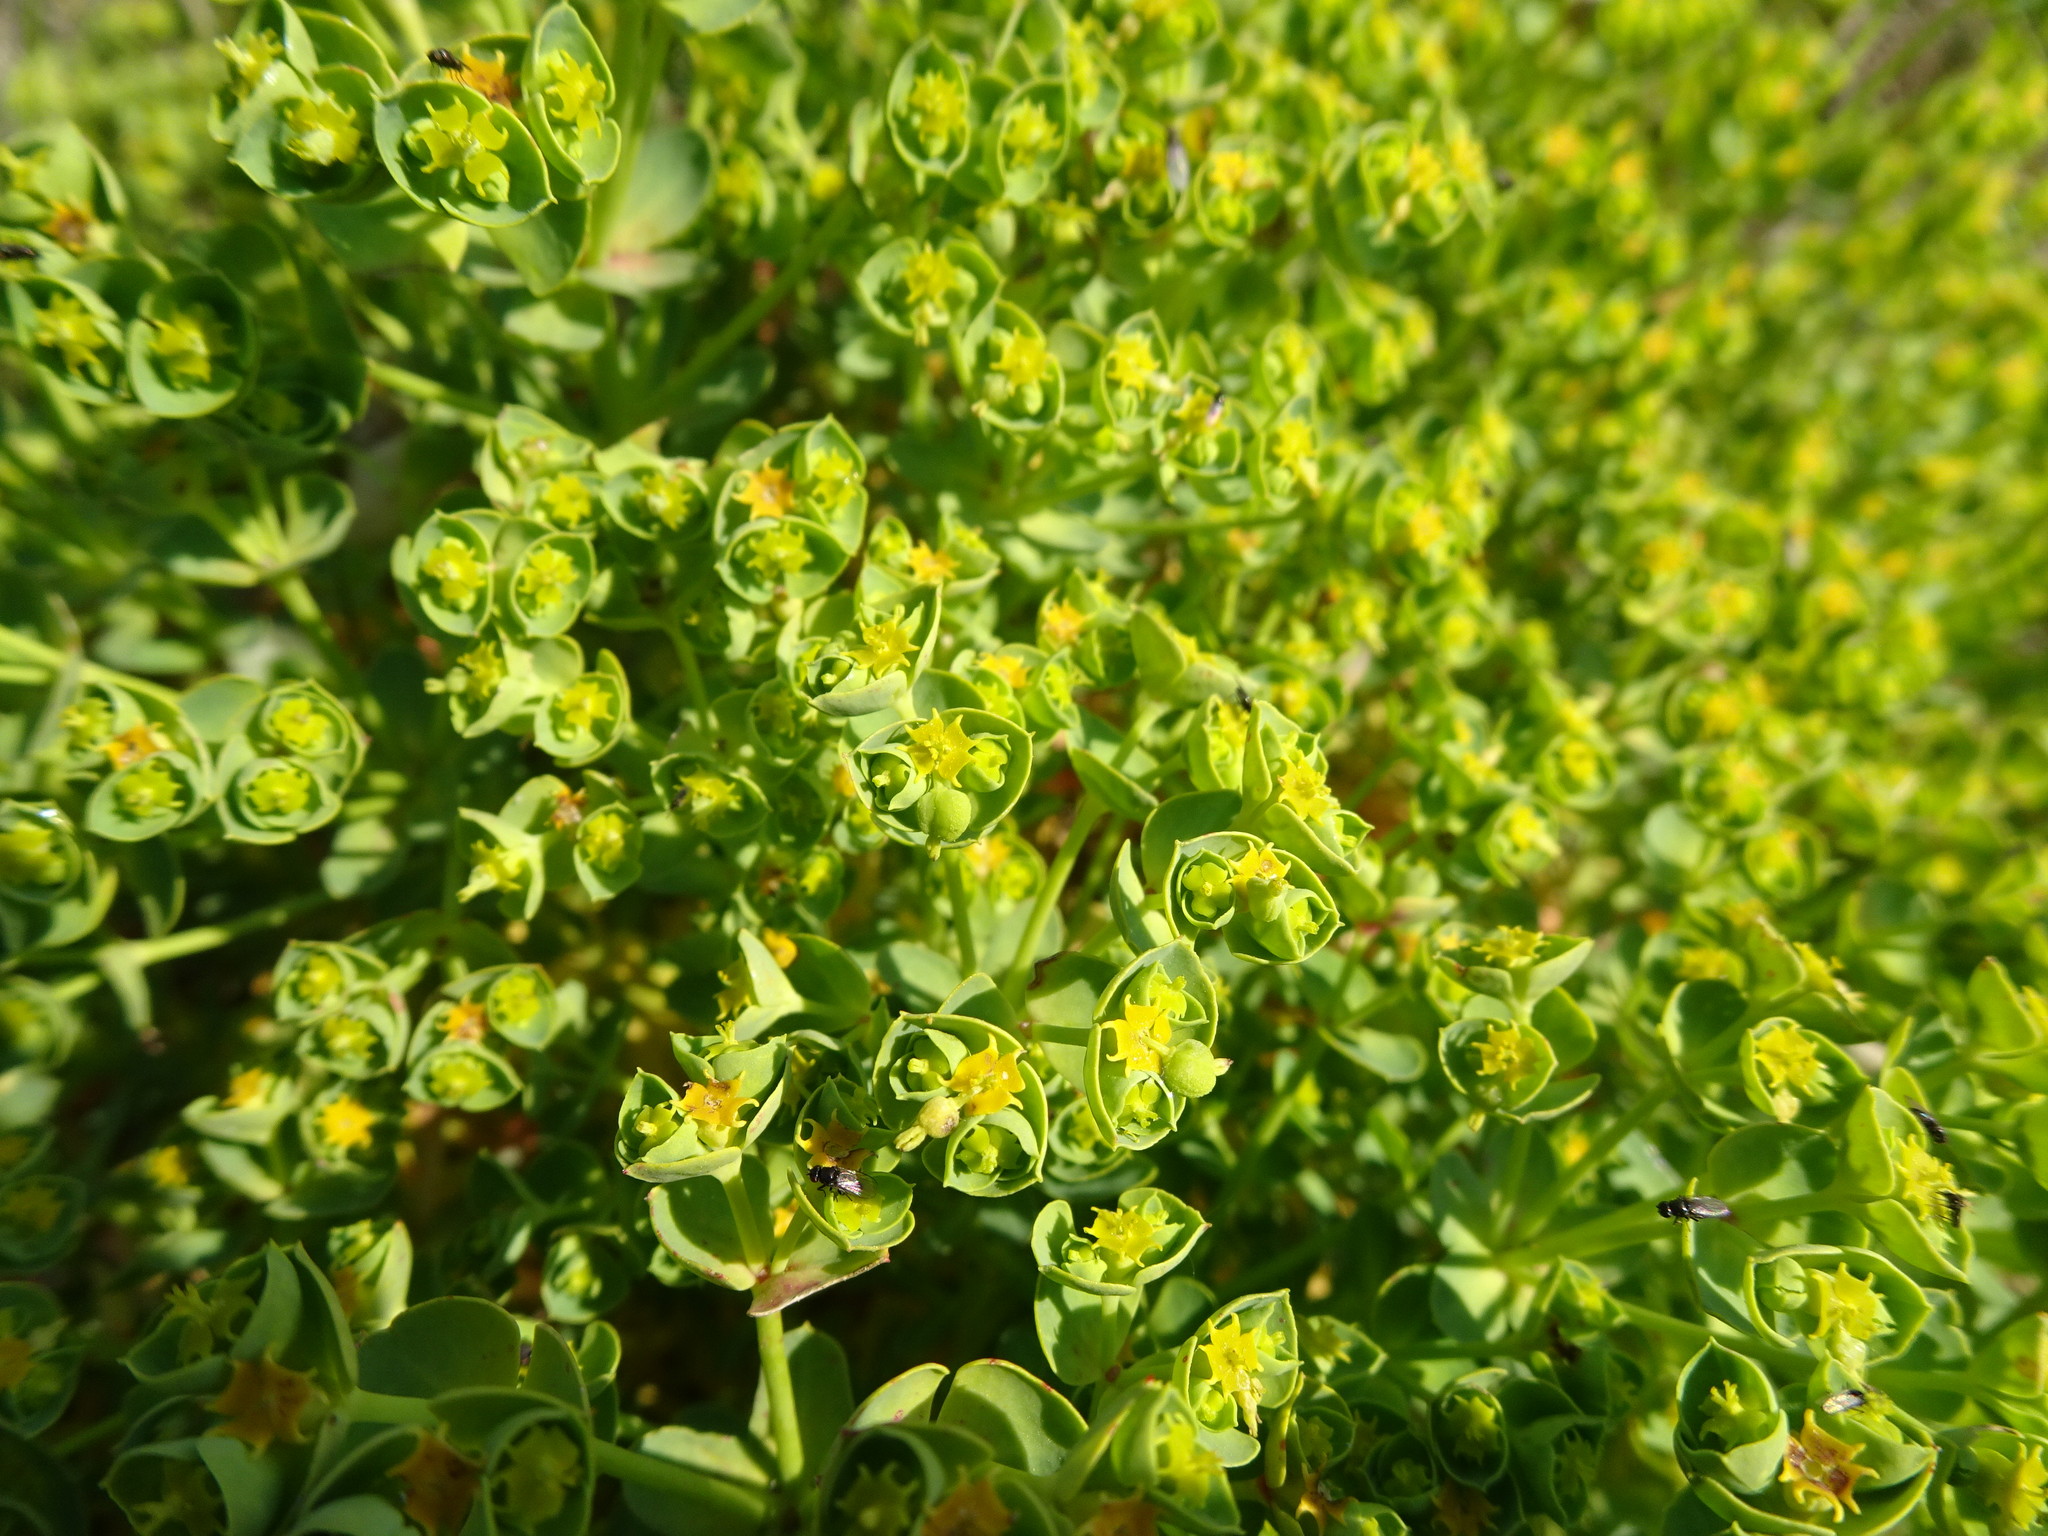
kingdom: Plantae
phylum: Tracheophyta
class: Magnoliopsida
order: Malpighiales
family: Euphorbiaceae
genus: Euphorbia
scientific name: Euphorbia portlandica
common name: Portland spurge
